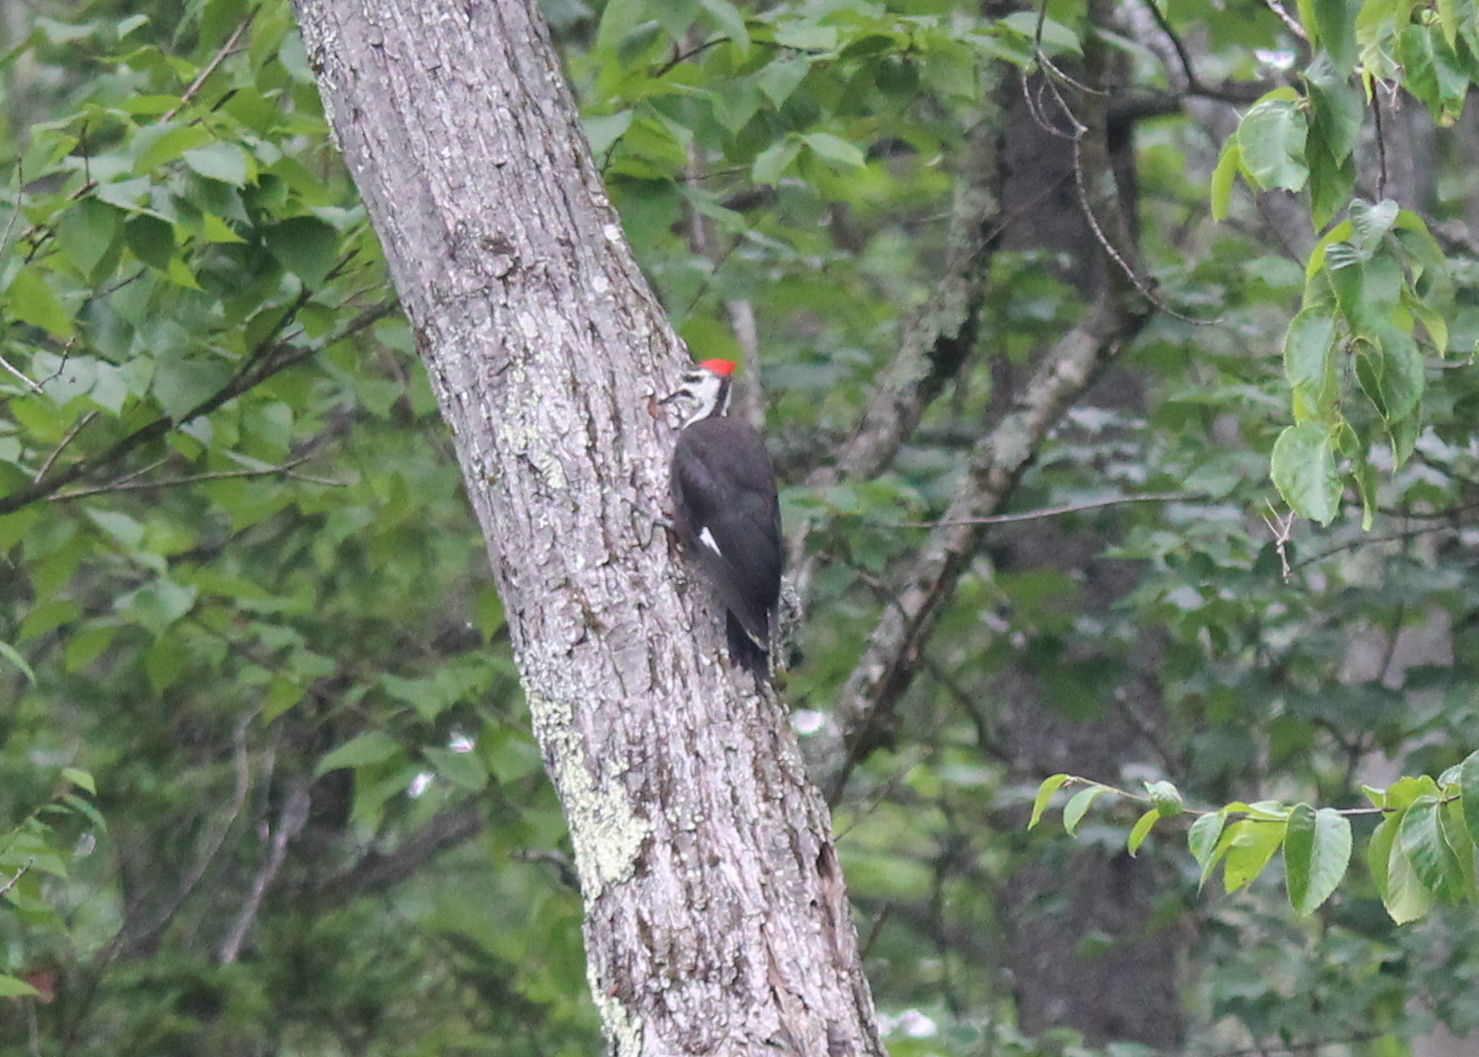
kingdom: Animalia
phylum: Chordata
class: Aves
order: Piciformes
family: Picidae
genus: Dryocopus
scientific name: Dryocopus pileatus
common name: Pileated woodpecker
